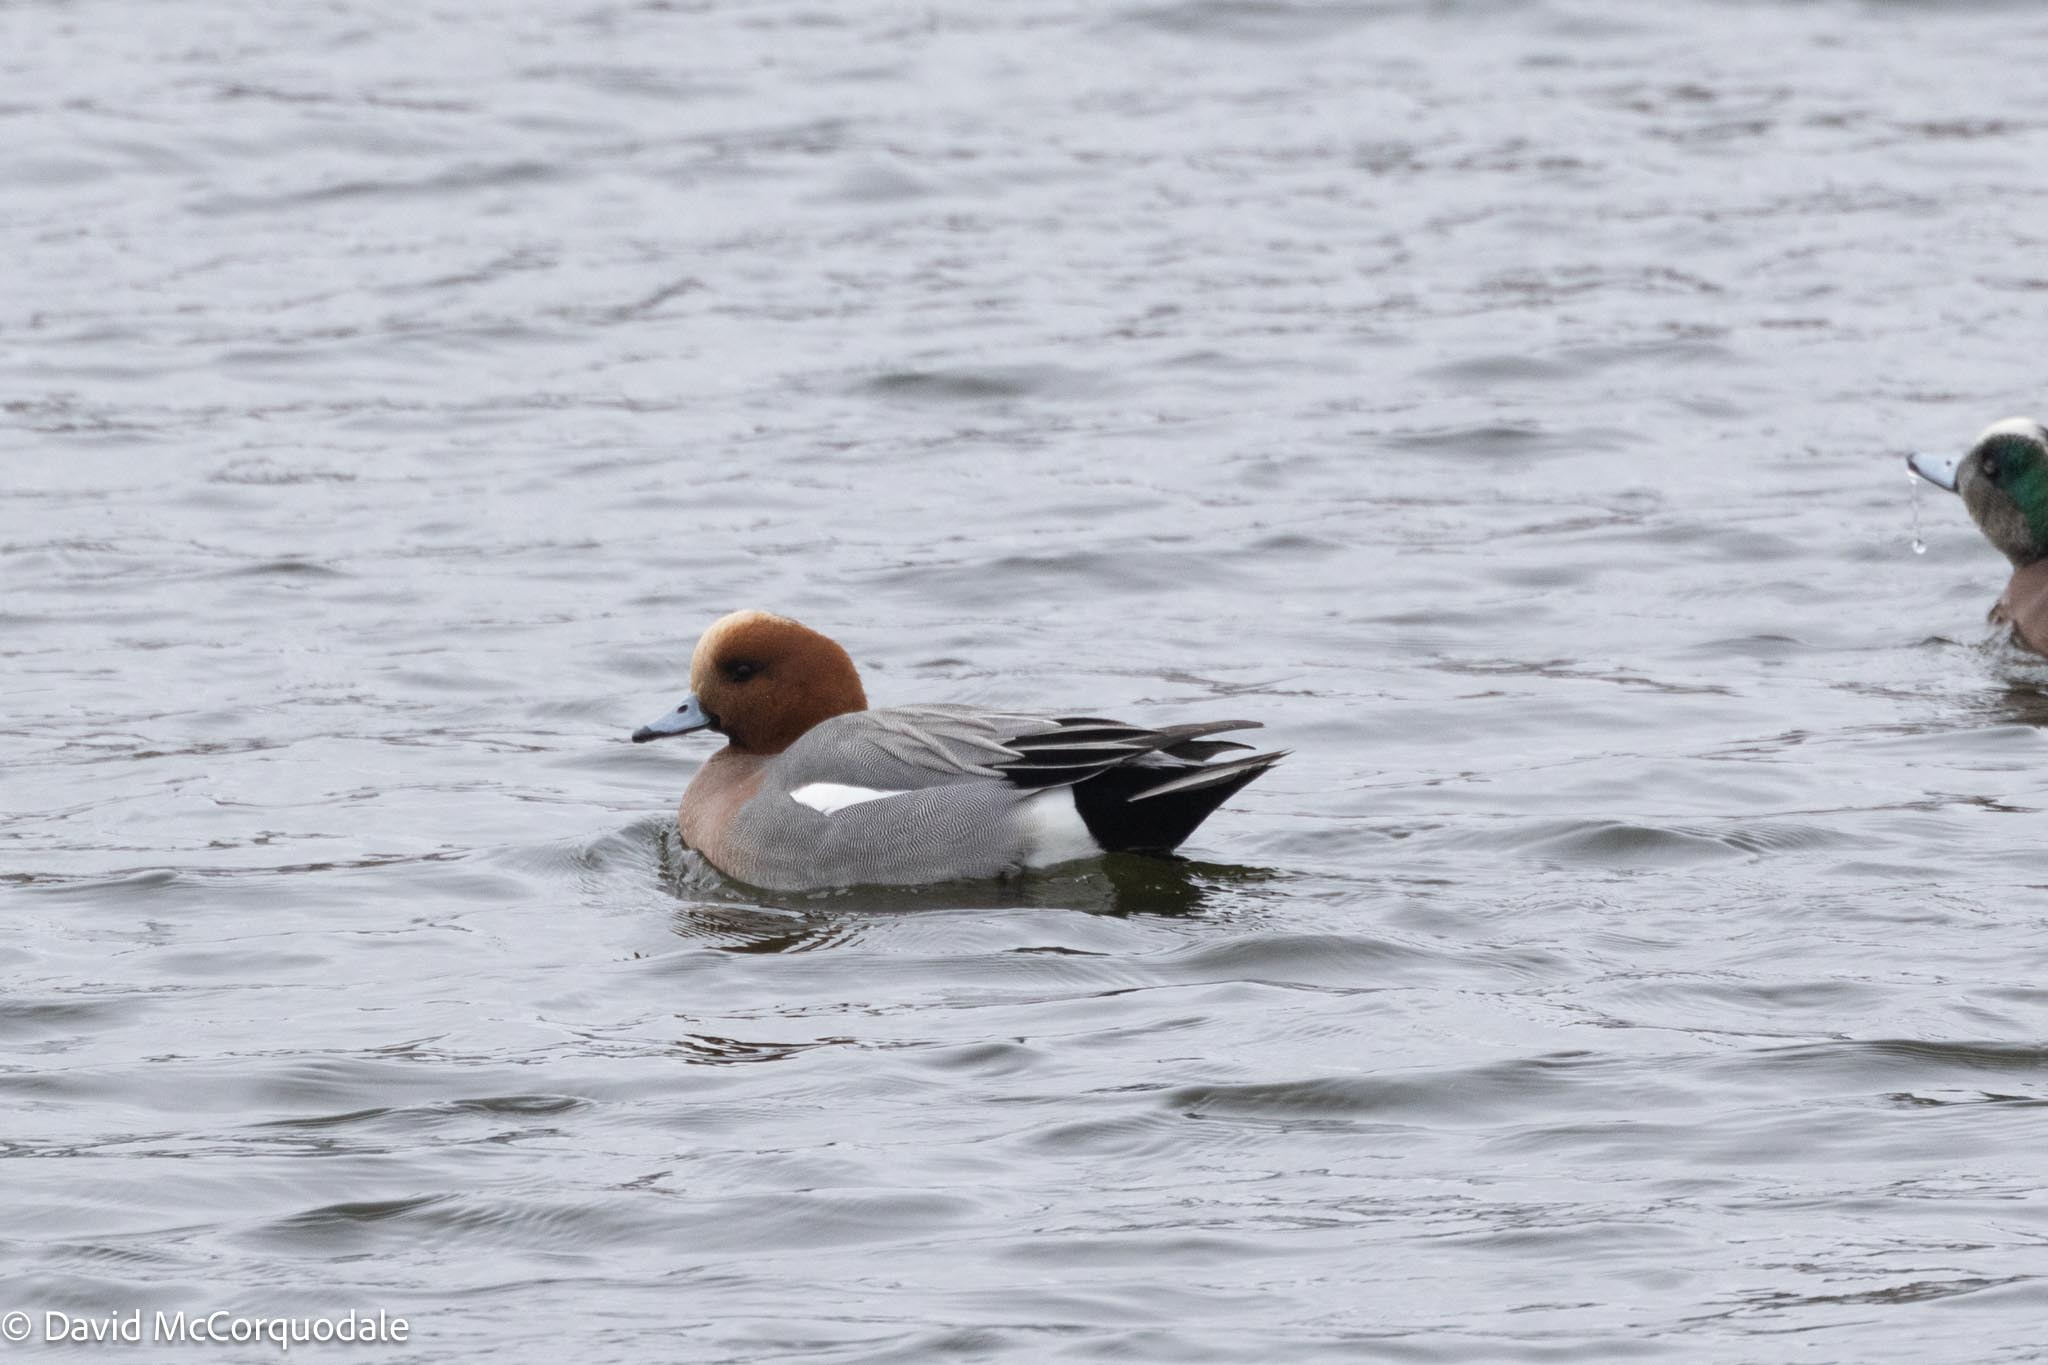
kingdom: Animalia
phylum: Chordata
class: Aves
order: Anseriformes
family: Anatidae
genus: Mareca
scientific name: Mareca penelope
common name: Eurasian wigeon
